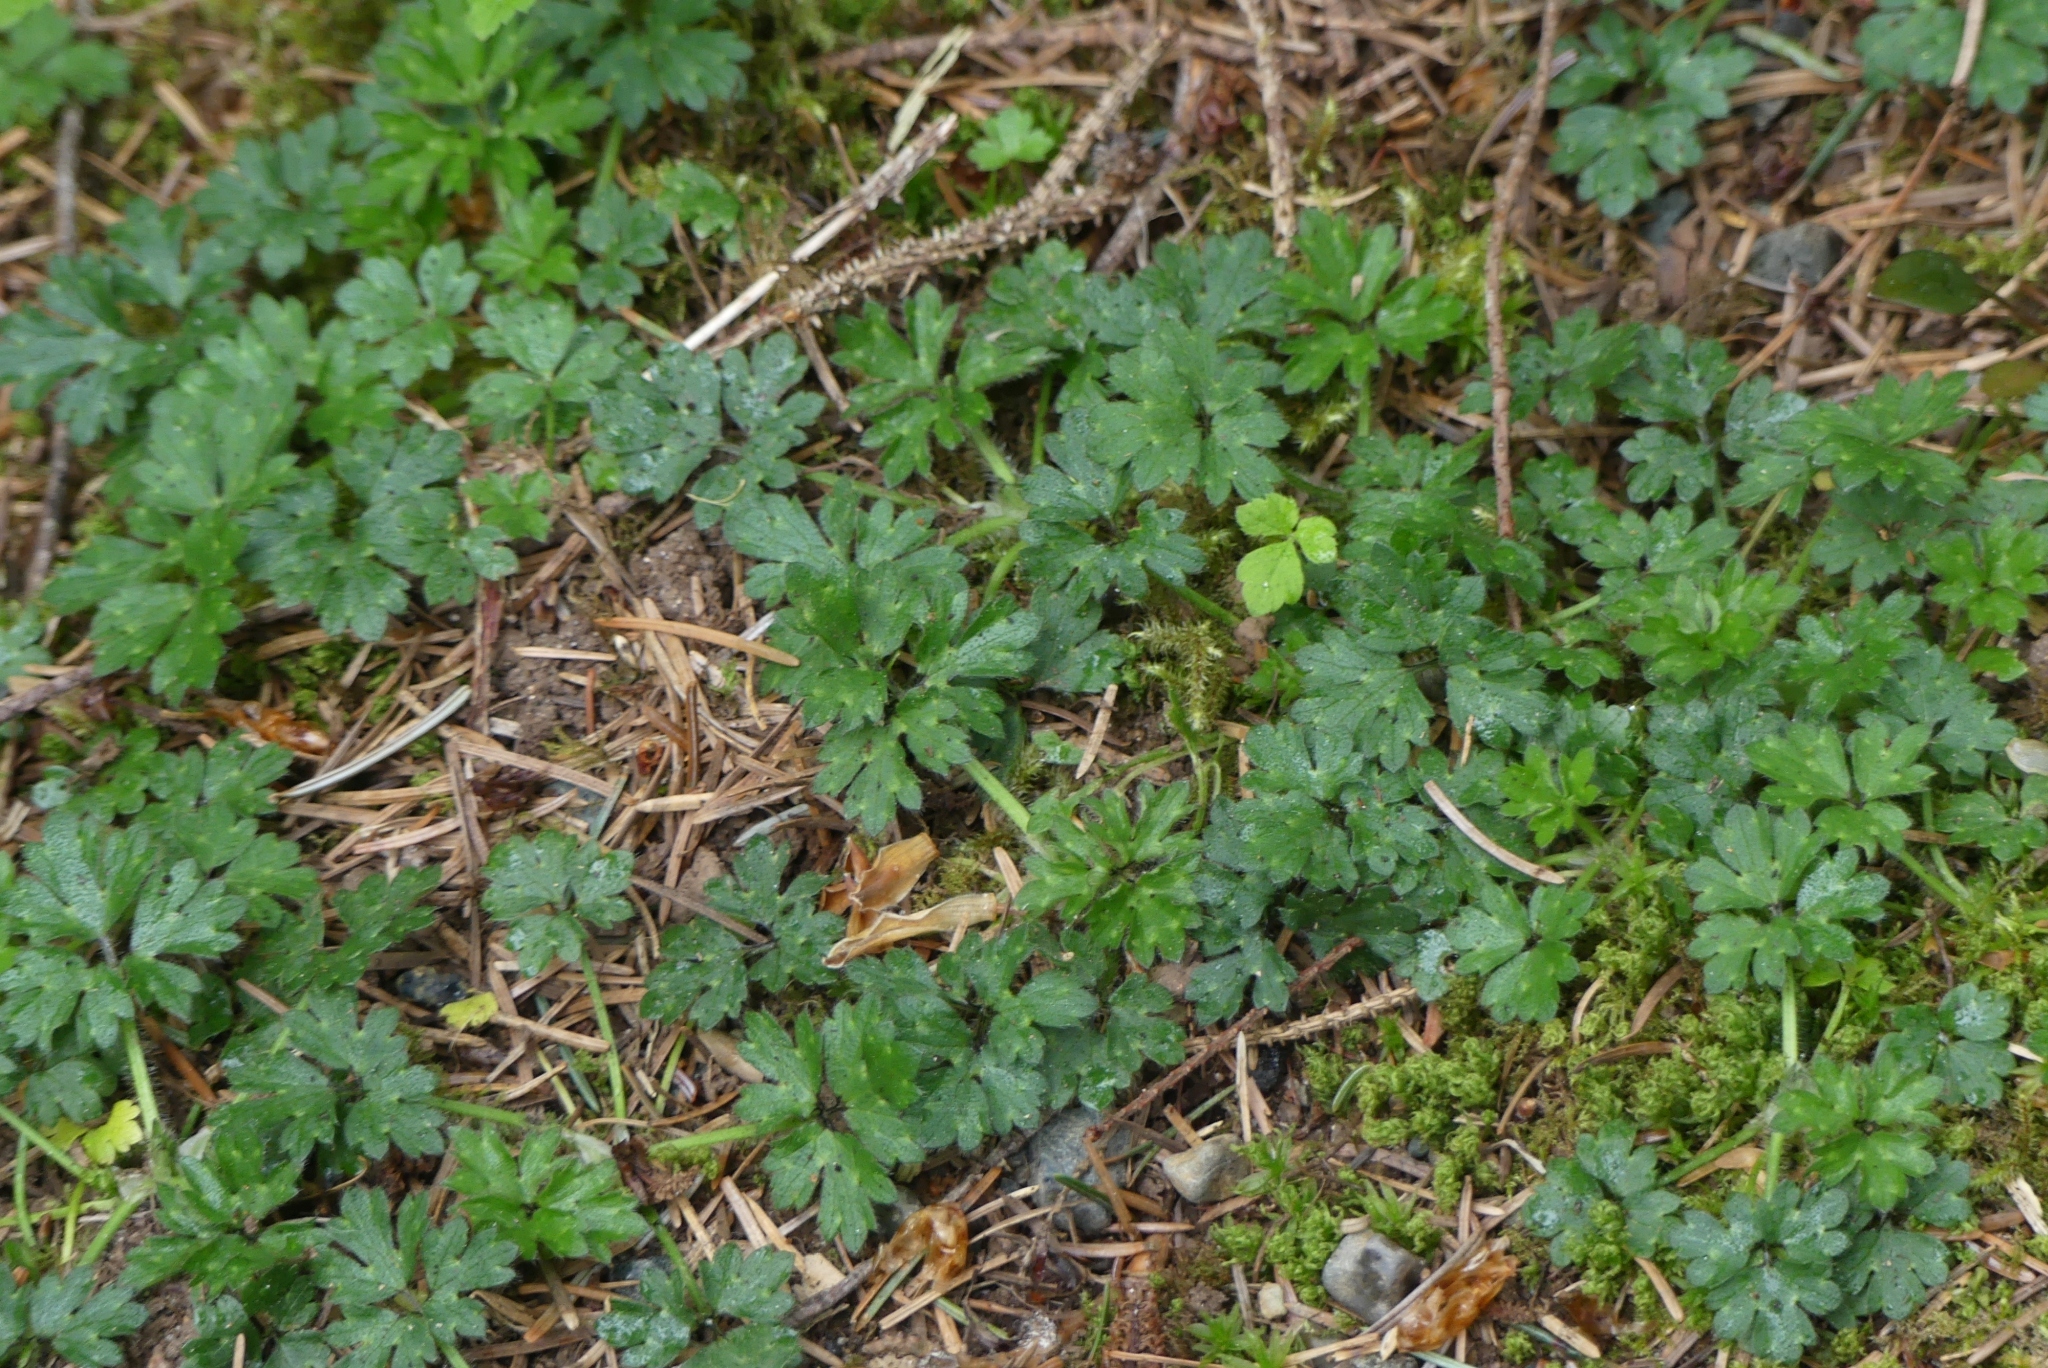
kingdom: Plantae
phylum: Tracheophyta
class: Magnoliopsida
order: Ranunculales
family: Ranunculaceae
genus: Ranunculus
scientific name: Ranunculus repens
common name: Creeping buttercup
